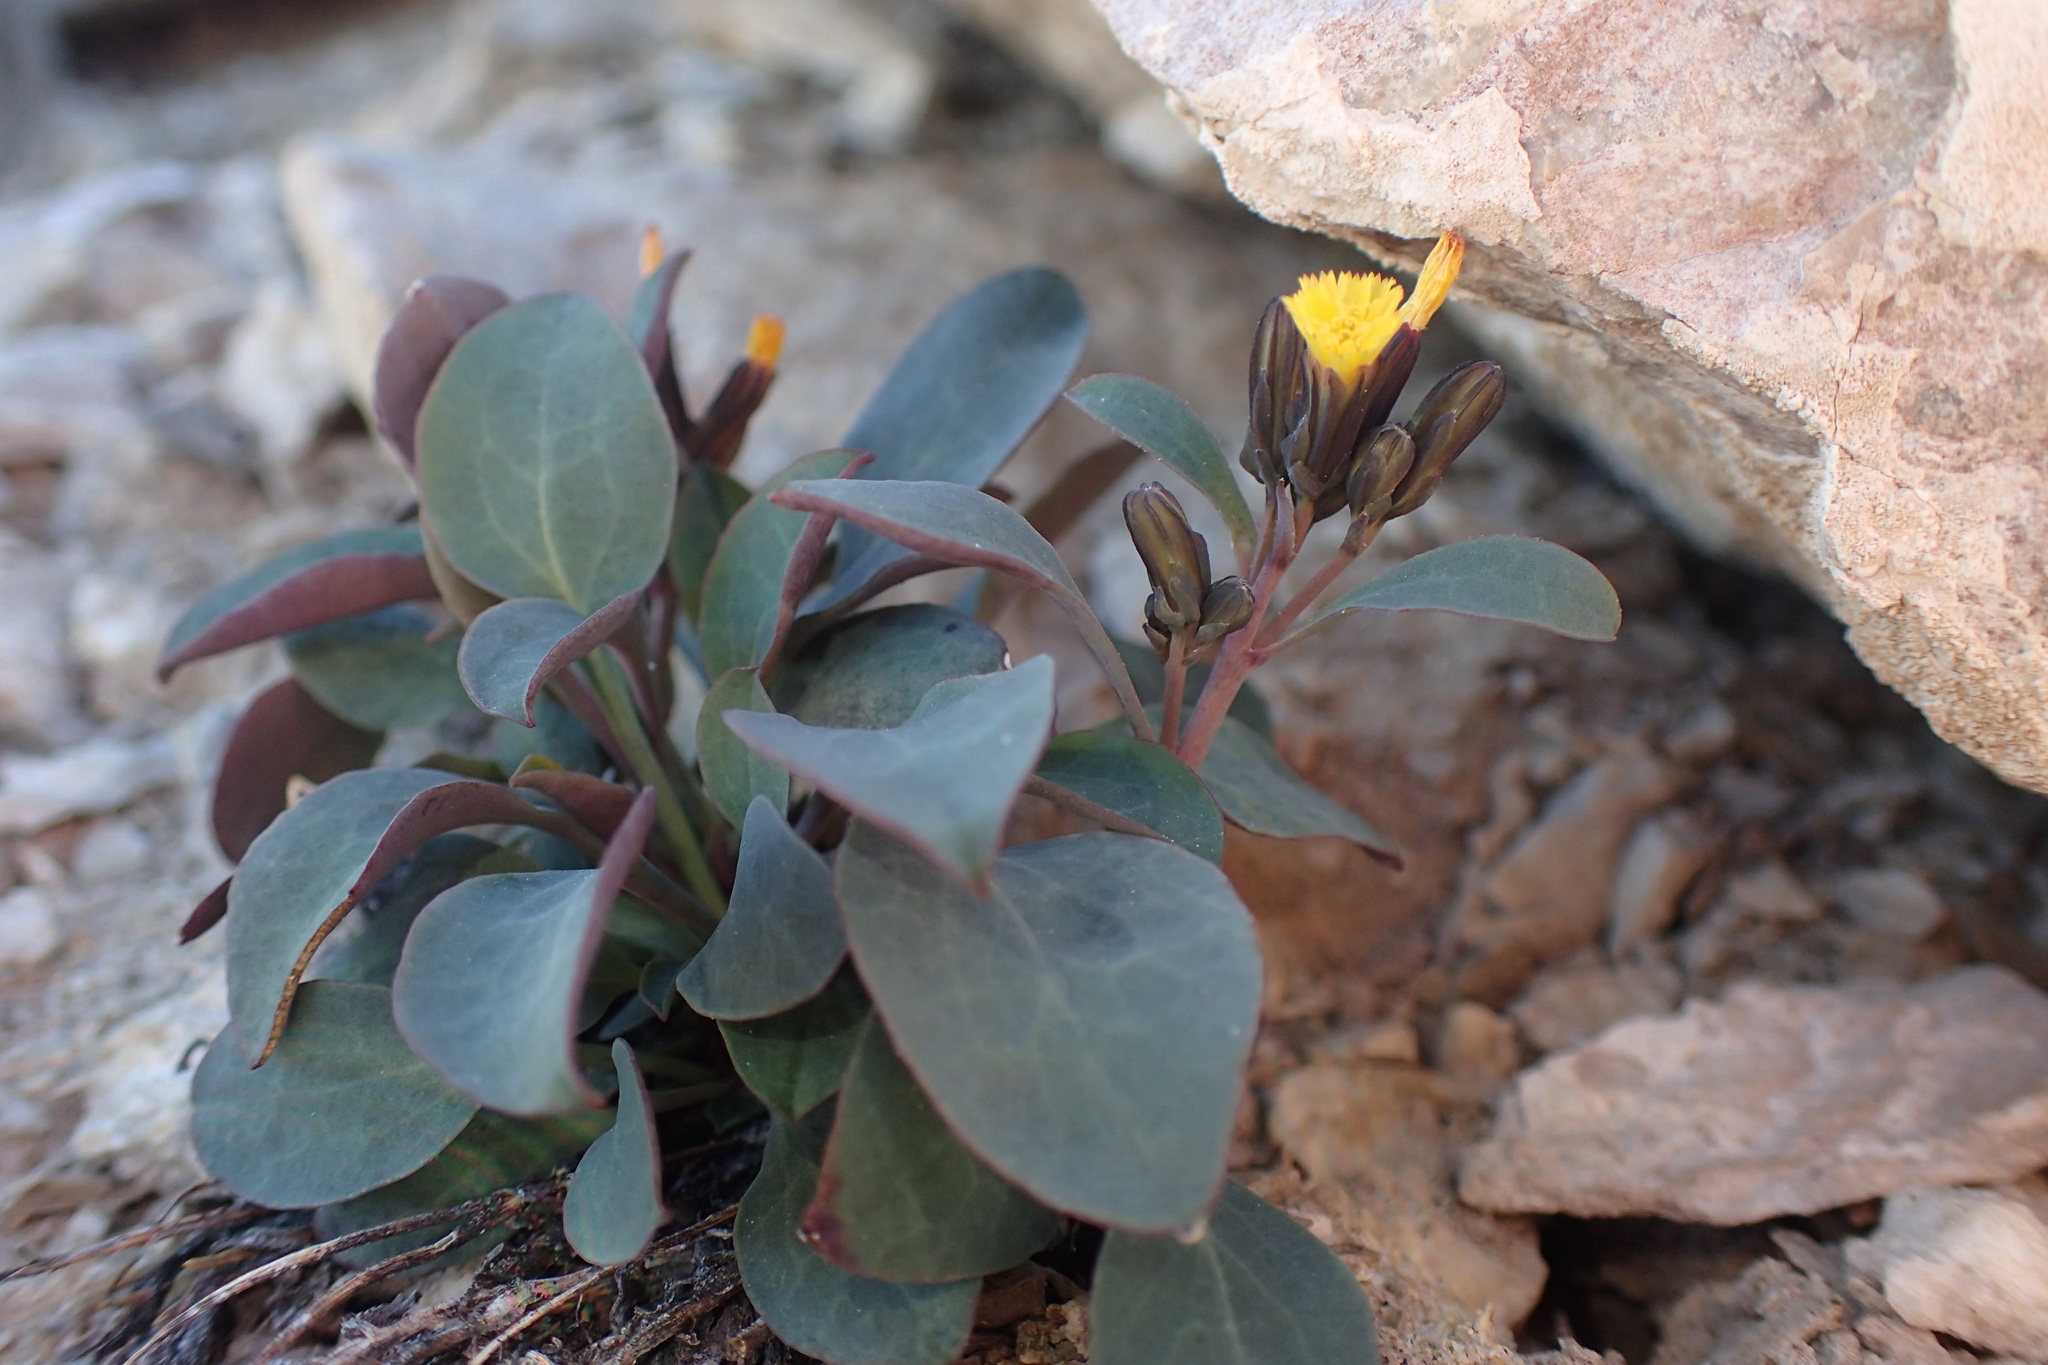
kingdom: Plantae
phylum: Tracheophyta
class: Magnoliopsida
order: Asterales
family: Asteraceae
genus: Askellia
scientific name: Askellia pygmaea
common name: Dwarf alpine hawksbeard
